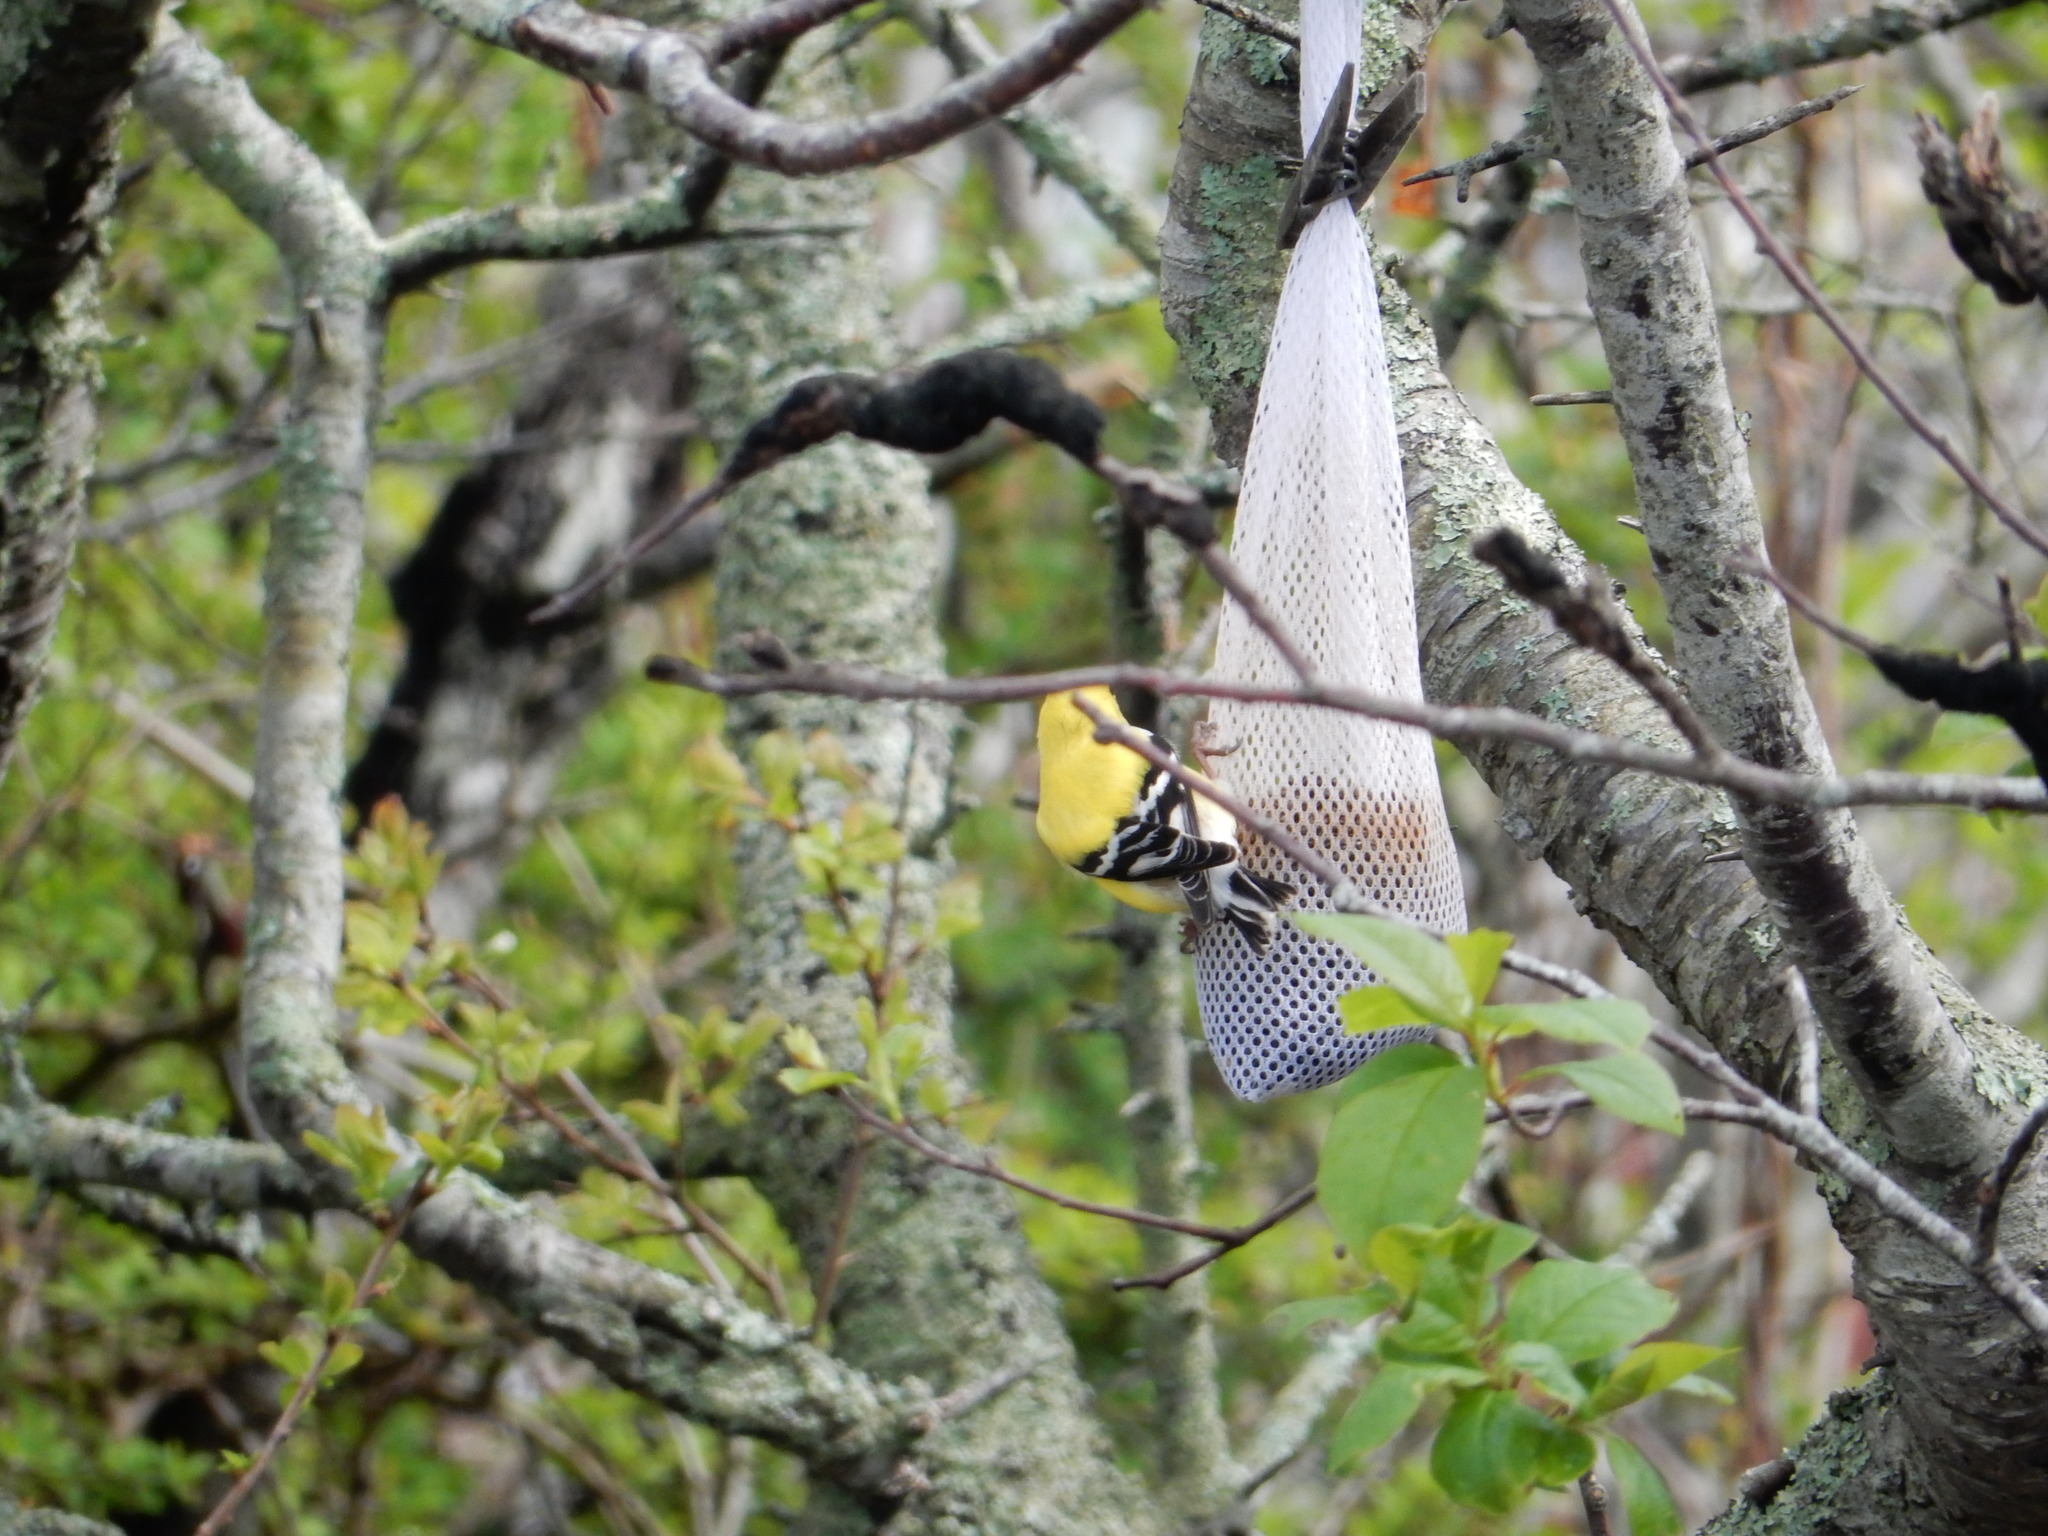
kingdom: Animalia
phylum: Chordata
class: Aves
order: Passeriformes
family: Fringillidae
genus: Spinus
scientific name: Spinus tristis
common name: American goldfinch
